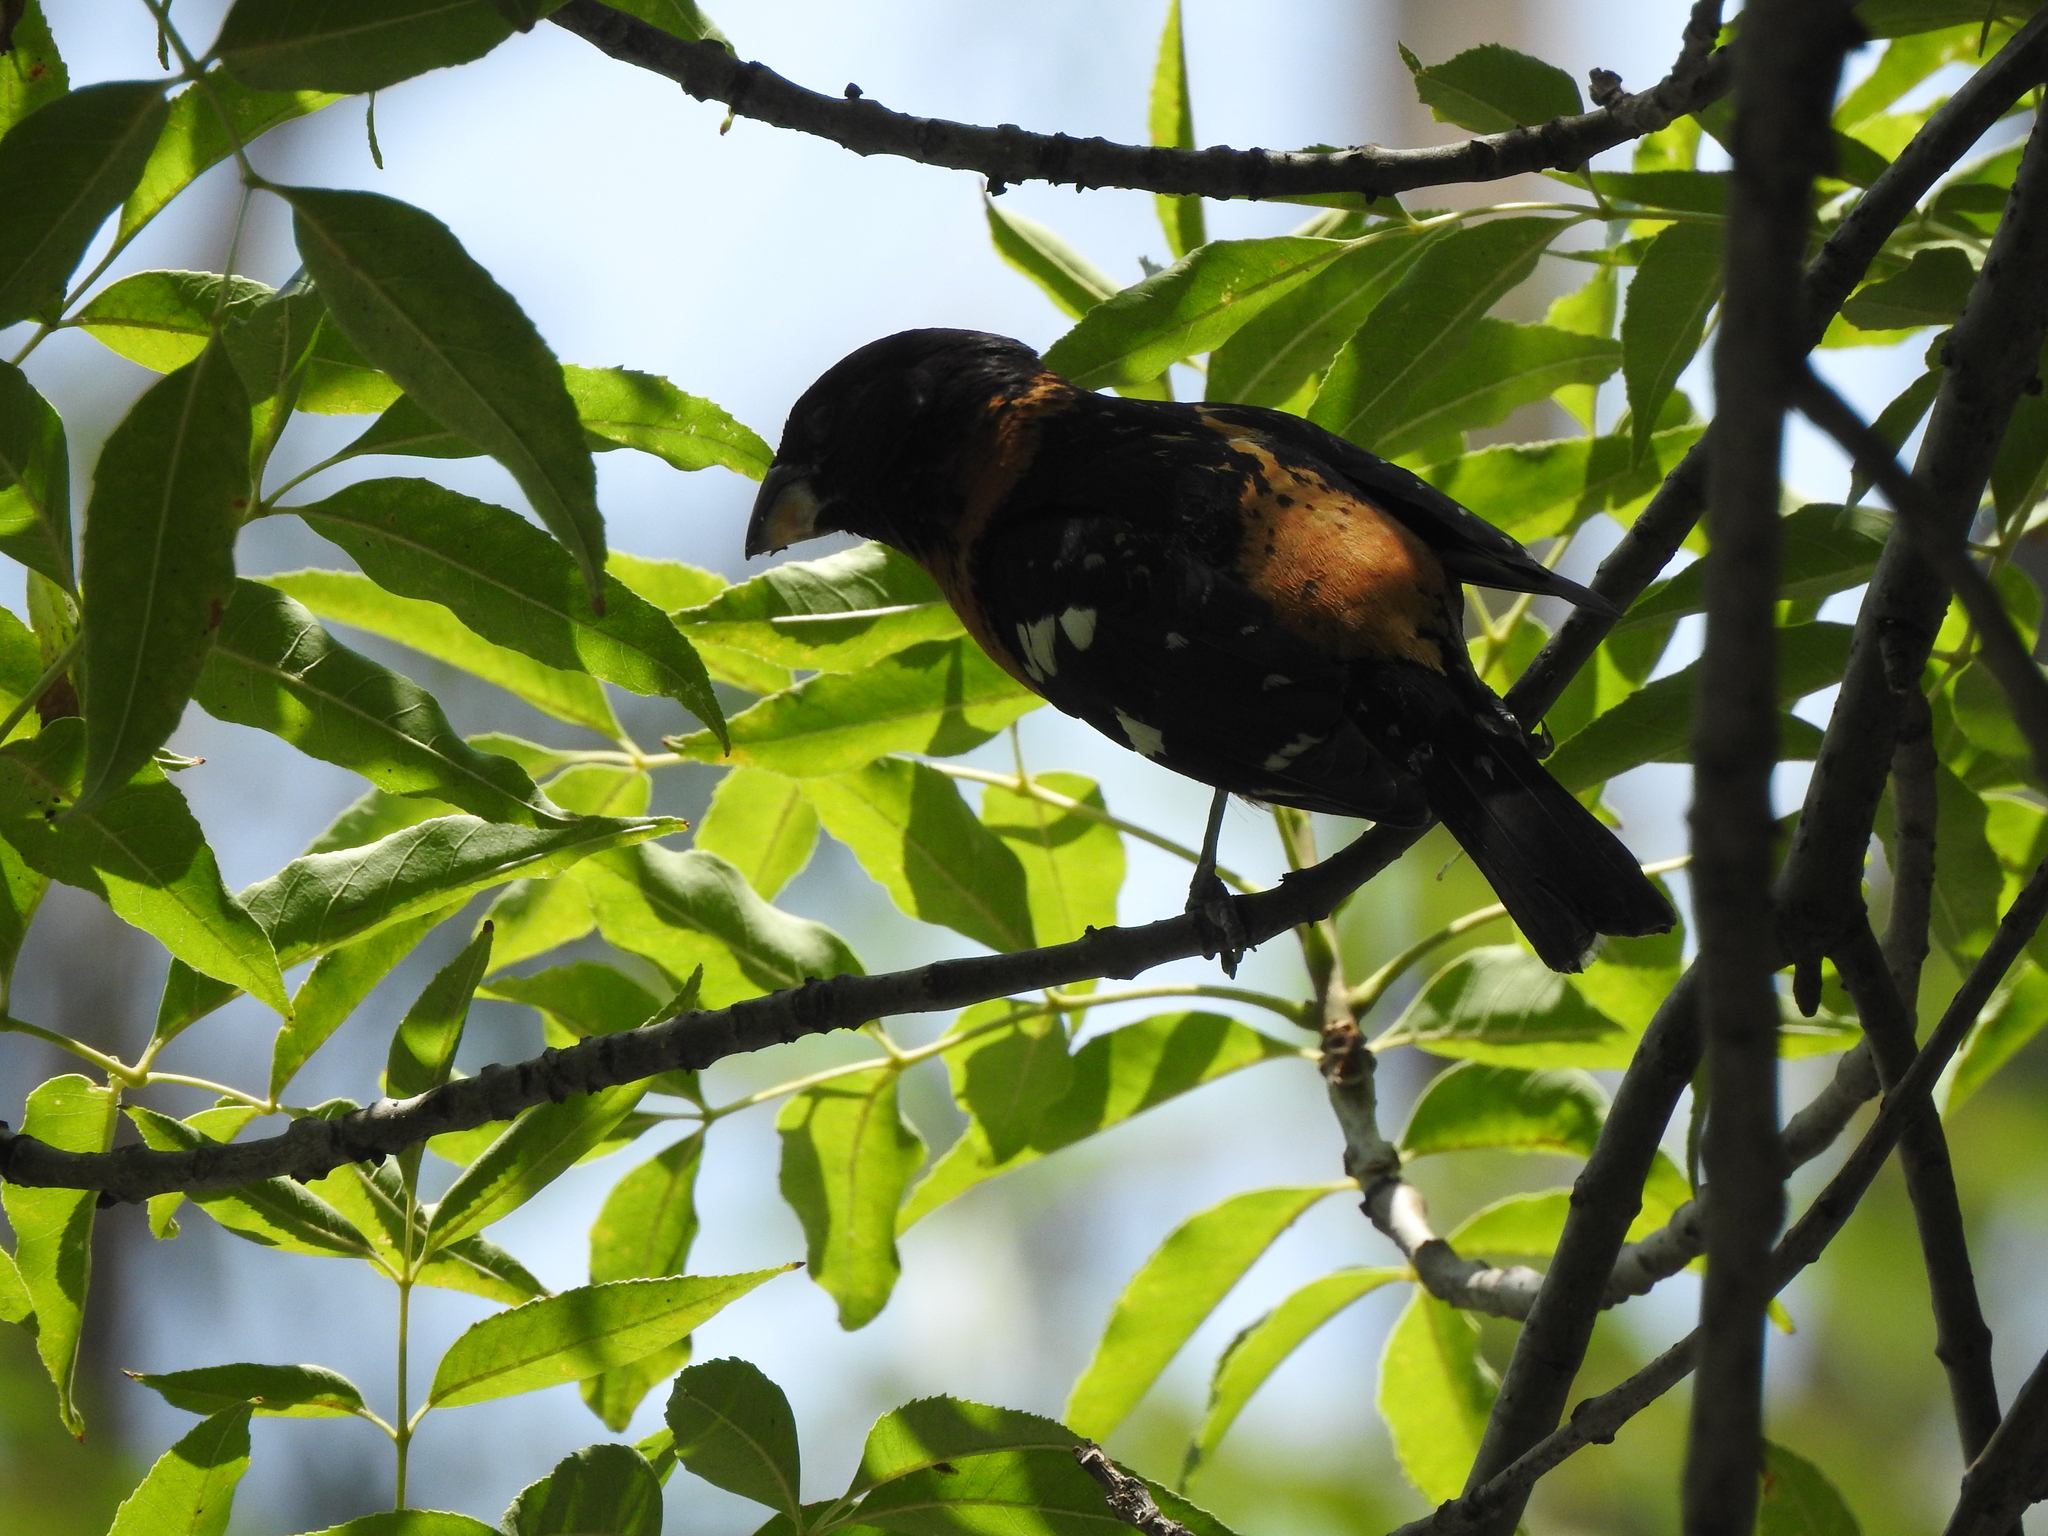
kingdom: Animalia
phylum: Chordata
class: Aves
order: Passeriformes
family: Cardinalidae
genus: Pheucticus
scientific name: Pheucticus melanocephalus
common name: Black-headed grosbeak
